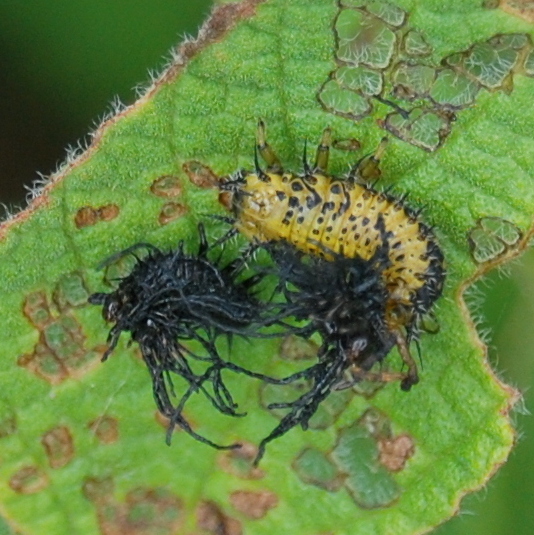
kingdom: Animalia
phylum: Arthropoda
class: Insecta
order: Coleoptera
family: Chrysomelidae
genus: Eurypedus
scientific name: Eurypedus peltoides
